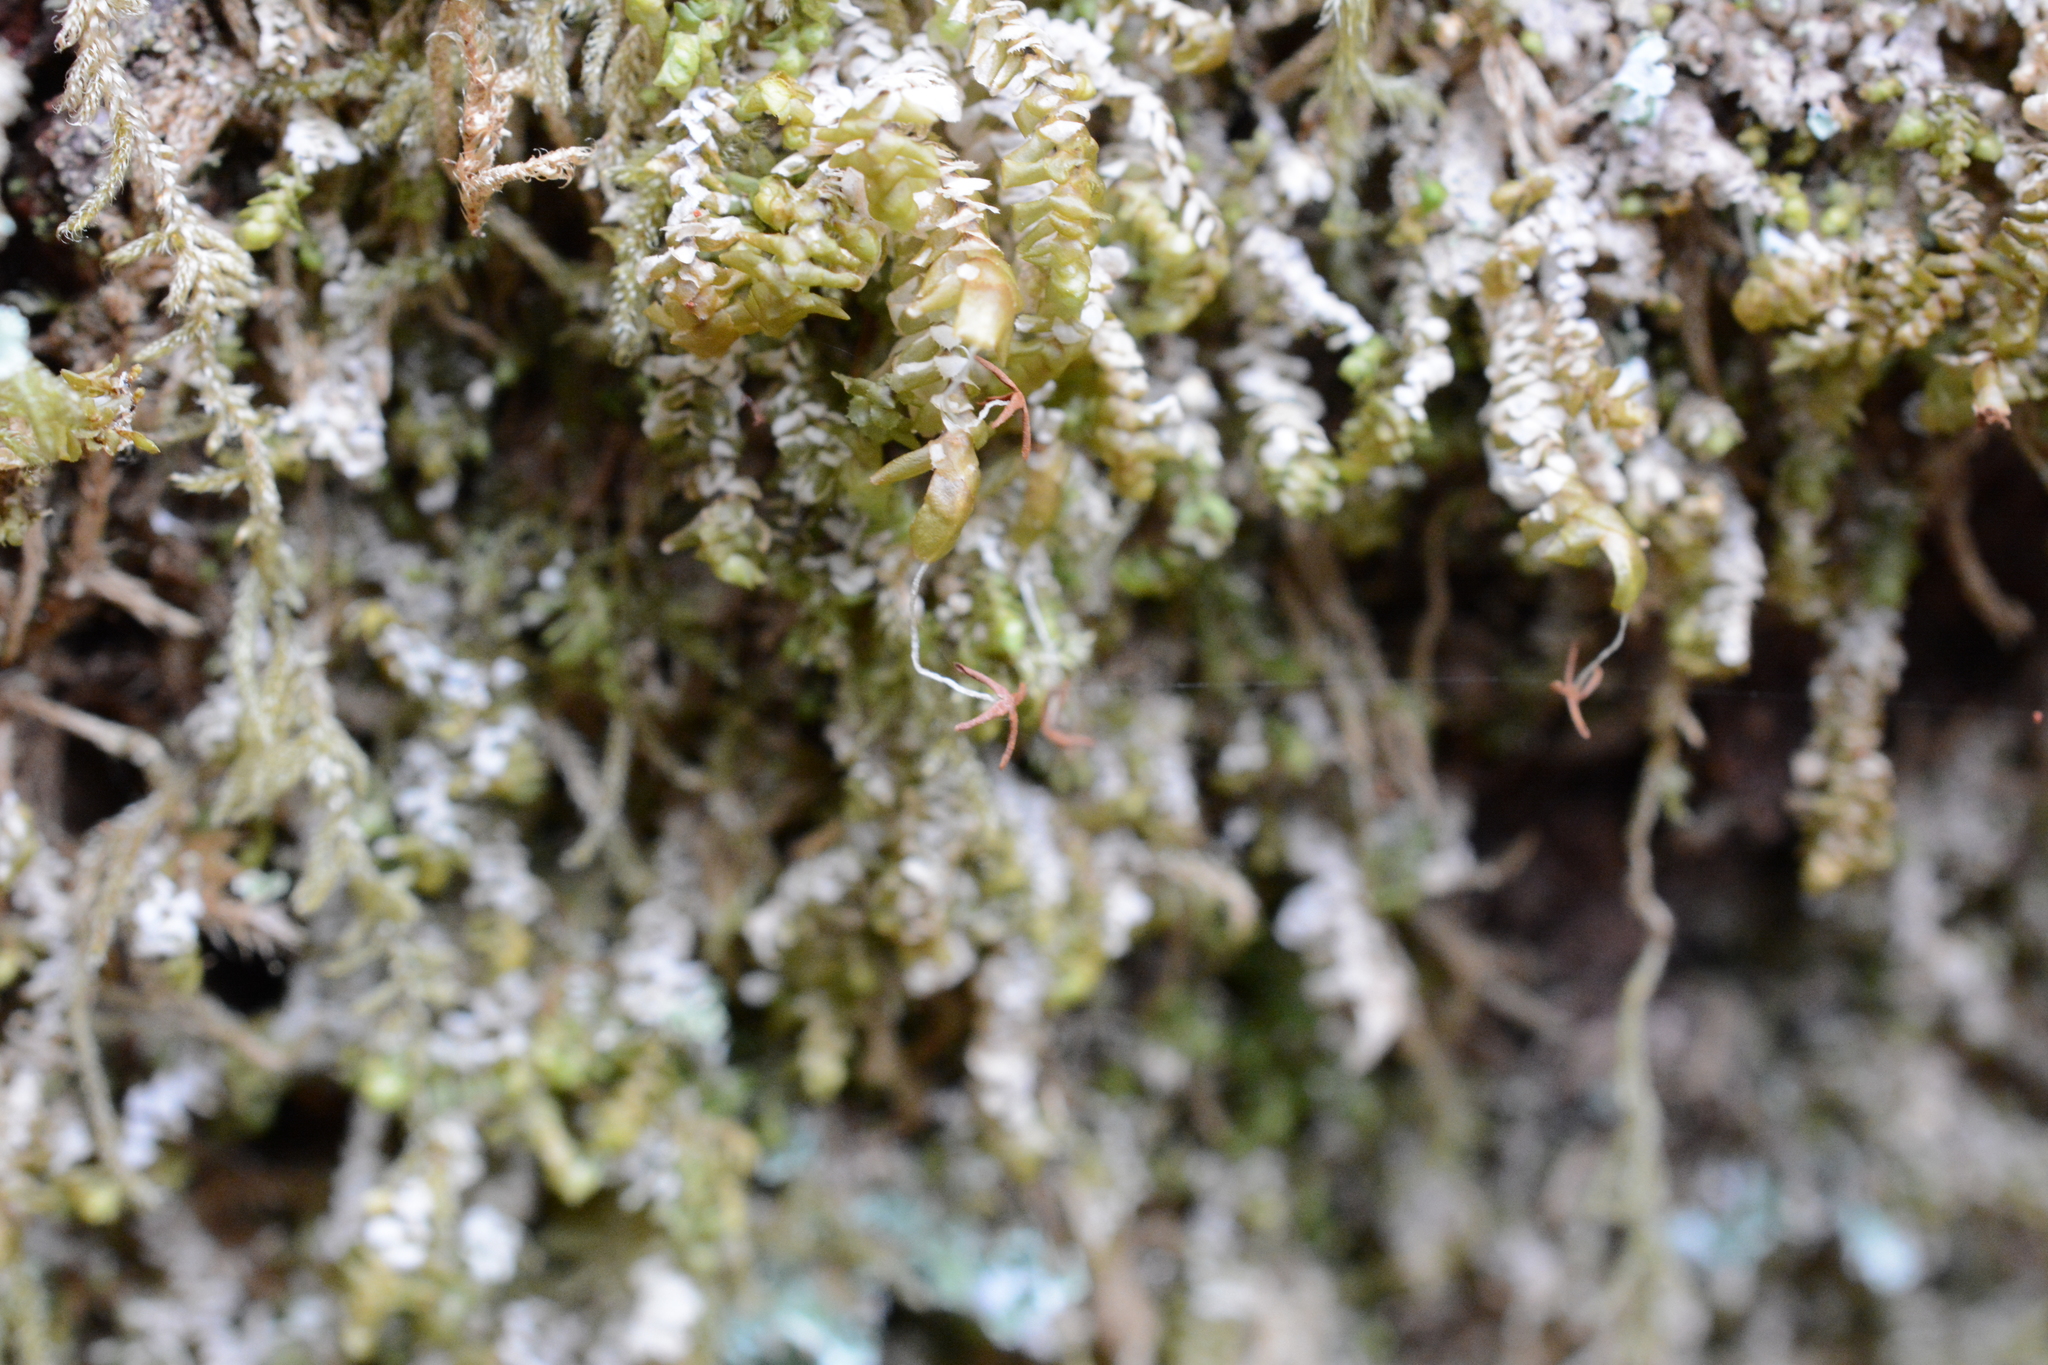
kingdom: Plantae
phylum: Marchantiophyta
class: Jungermanniopsida
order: Jungermanniales
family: Scapaniaceae
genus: Scapania
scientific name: Scapania bolanderi
